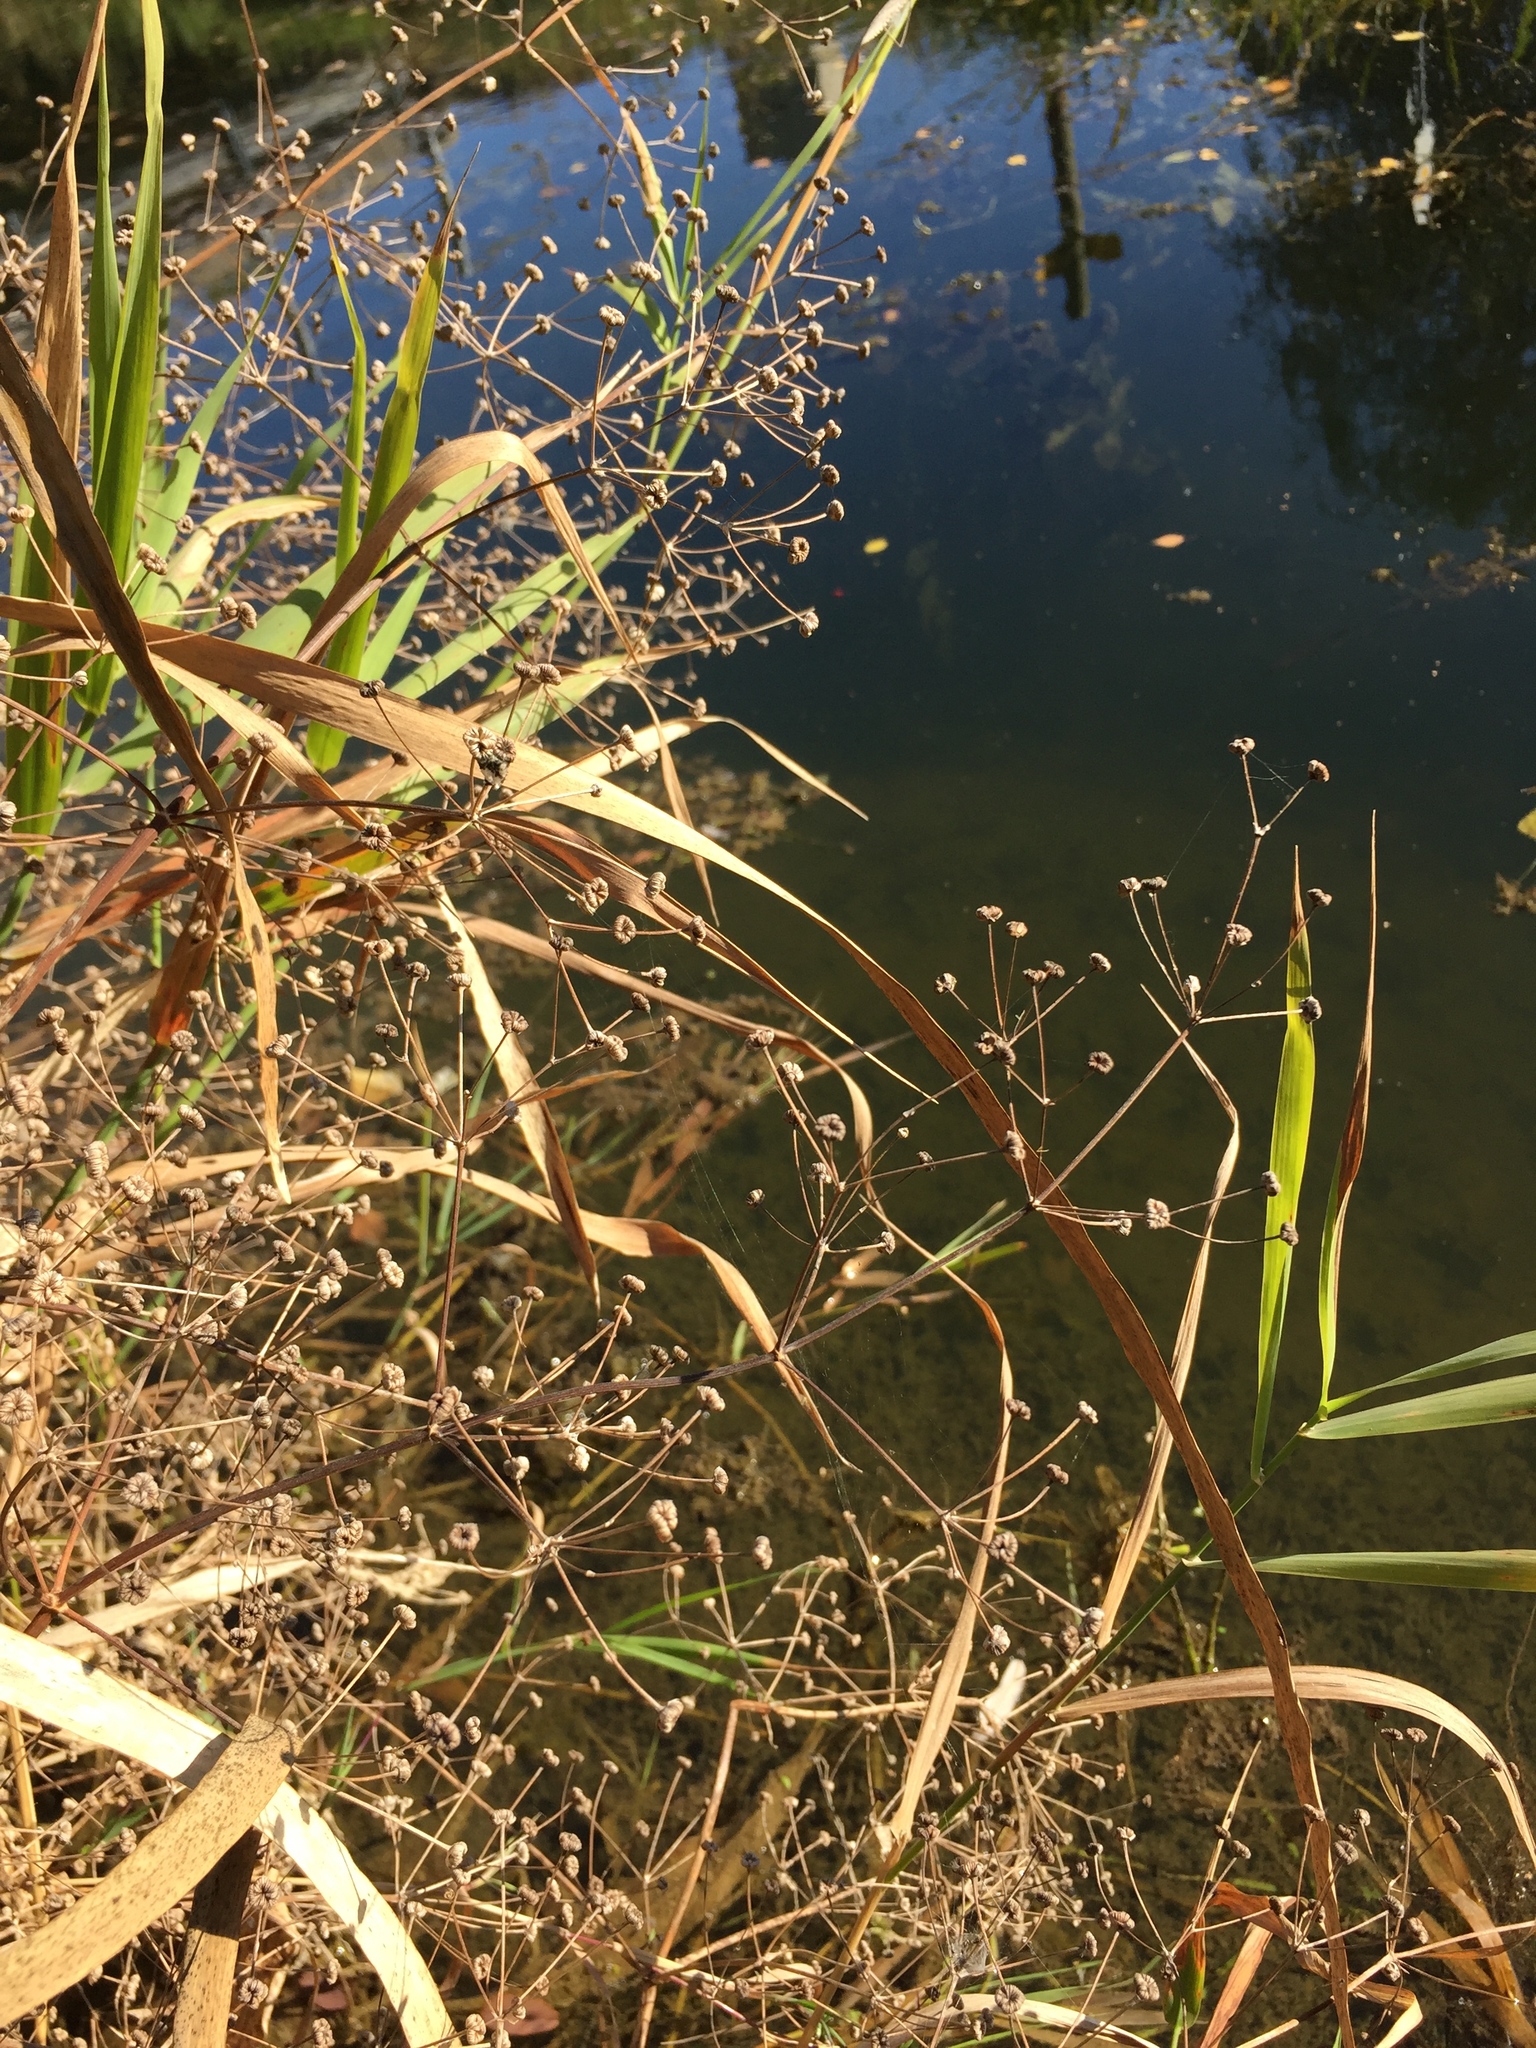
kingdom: Plantae
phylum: Tracheophyta
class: Liliopsida
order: Alismatales
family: Alismataceae
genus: Alisma
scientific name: Alisma plantago-aquatica
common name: Water-plantain
